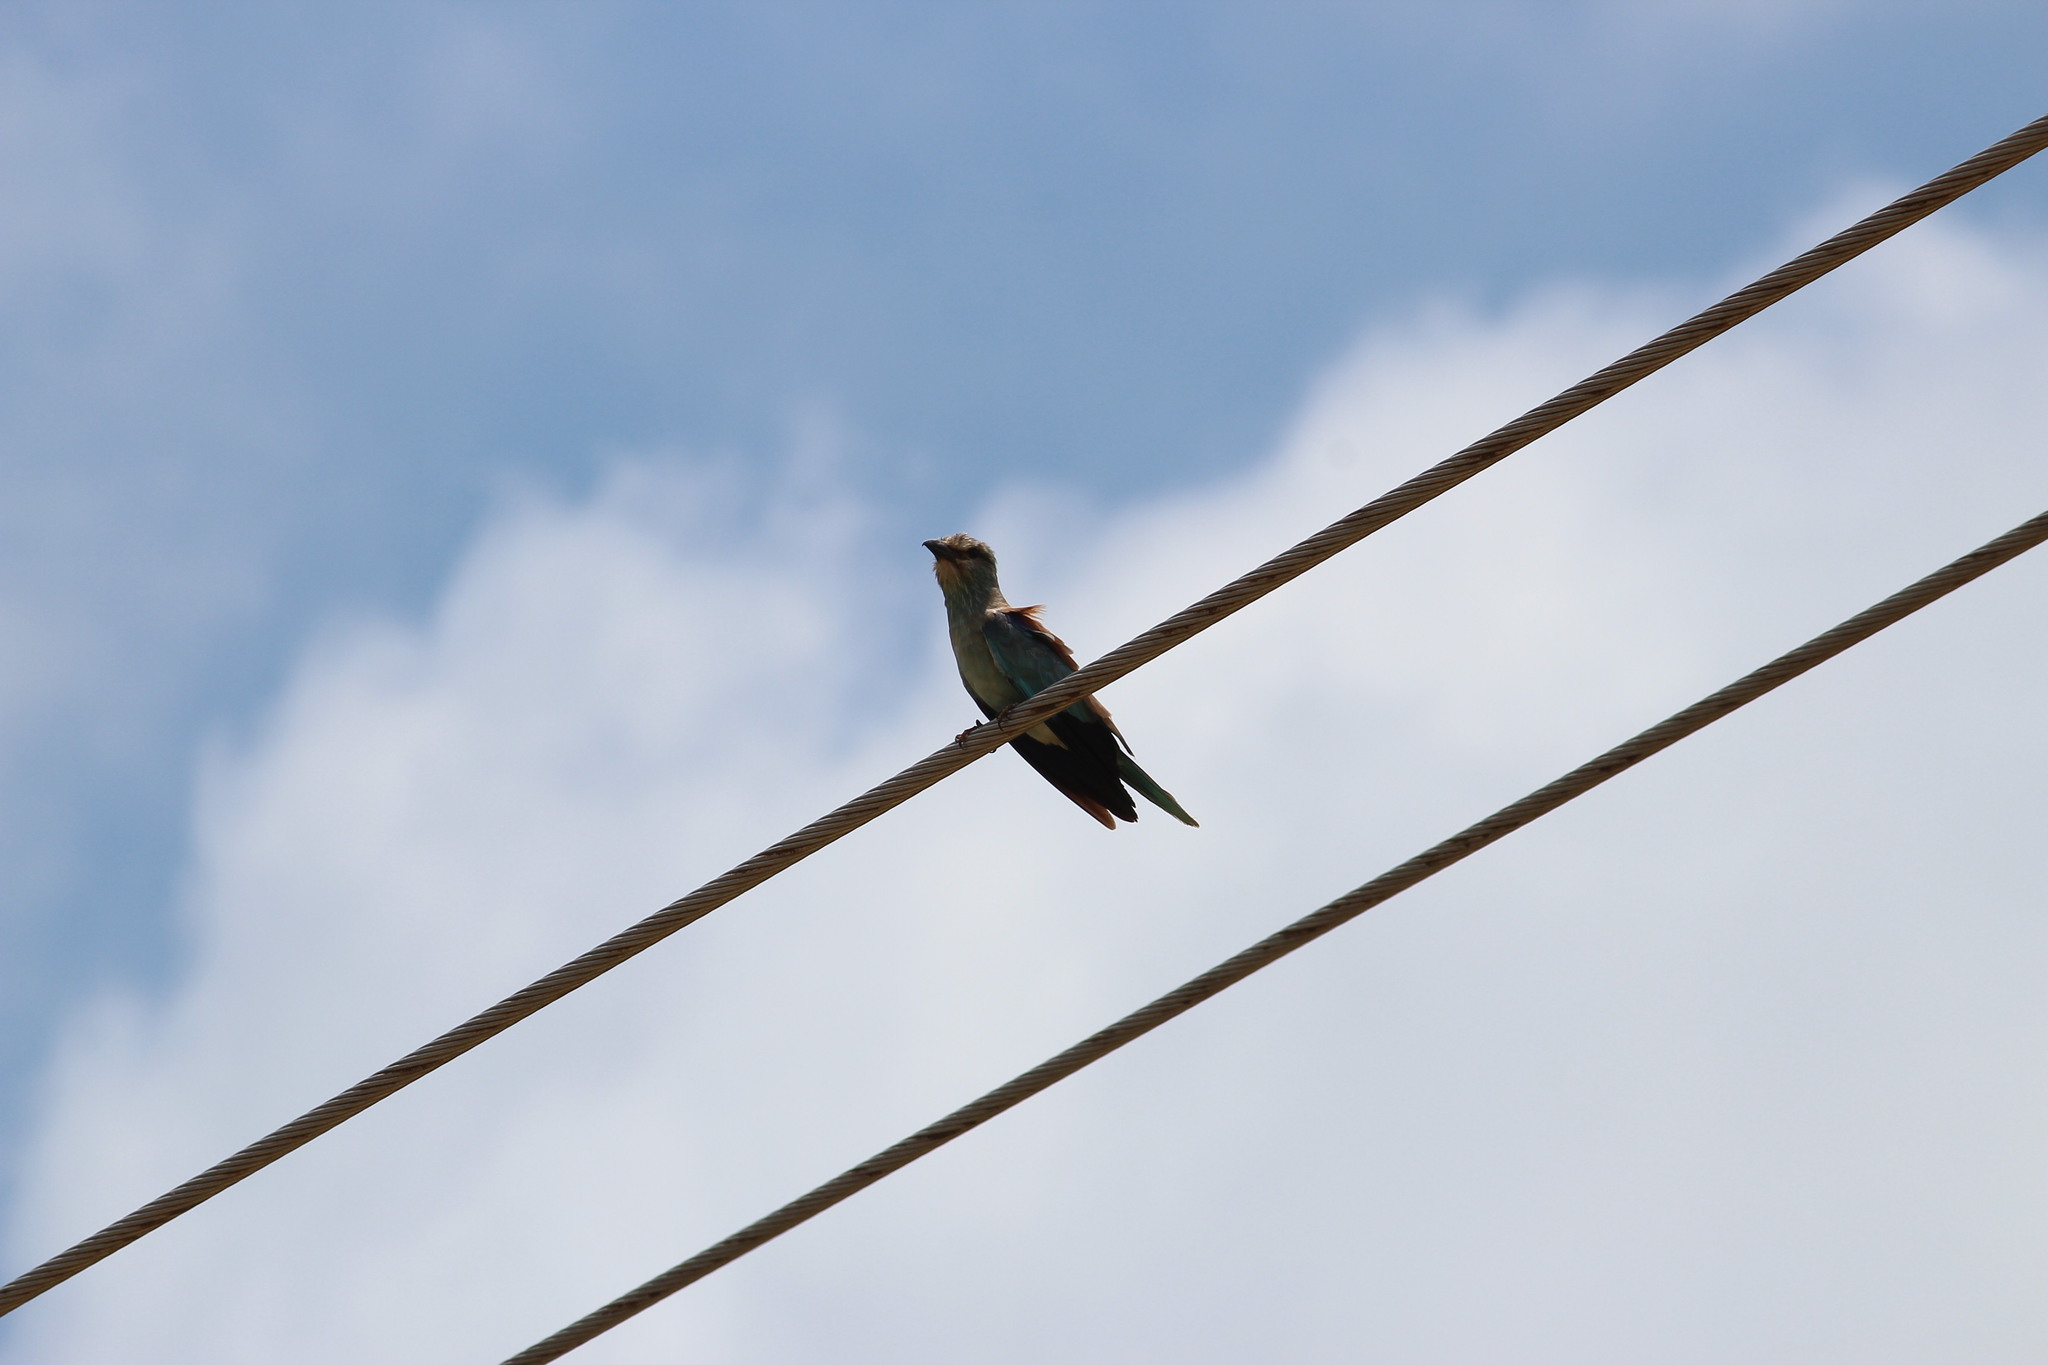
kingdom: Animalia
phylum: Chordata
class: Aves
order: Coraciiformes
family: Coraciidae
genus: Coracias
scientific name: Coracias garrulus
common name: European roller
